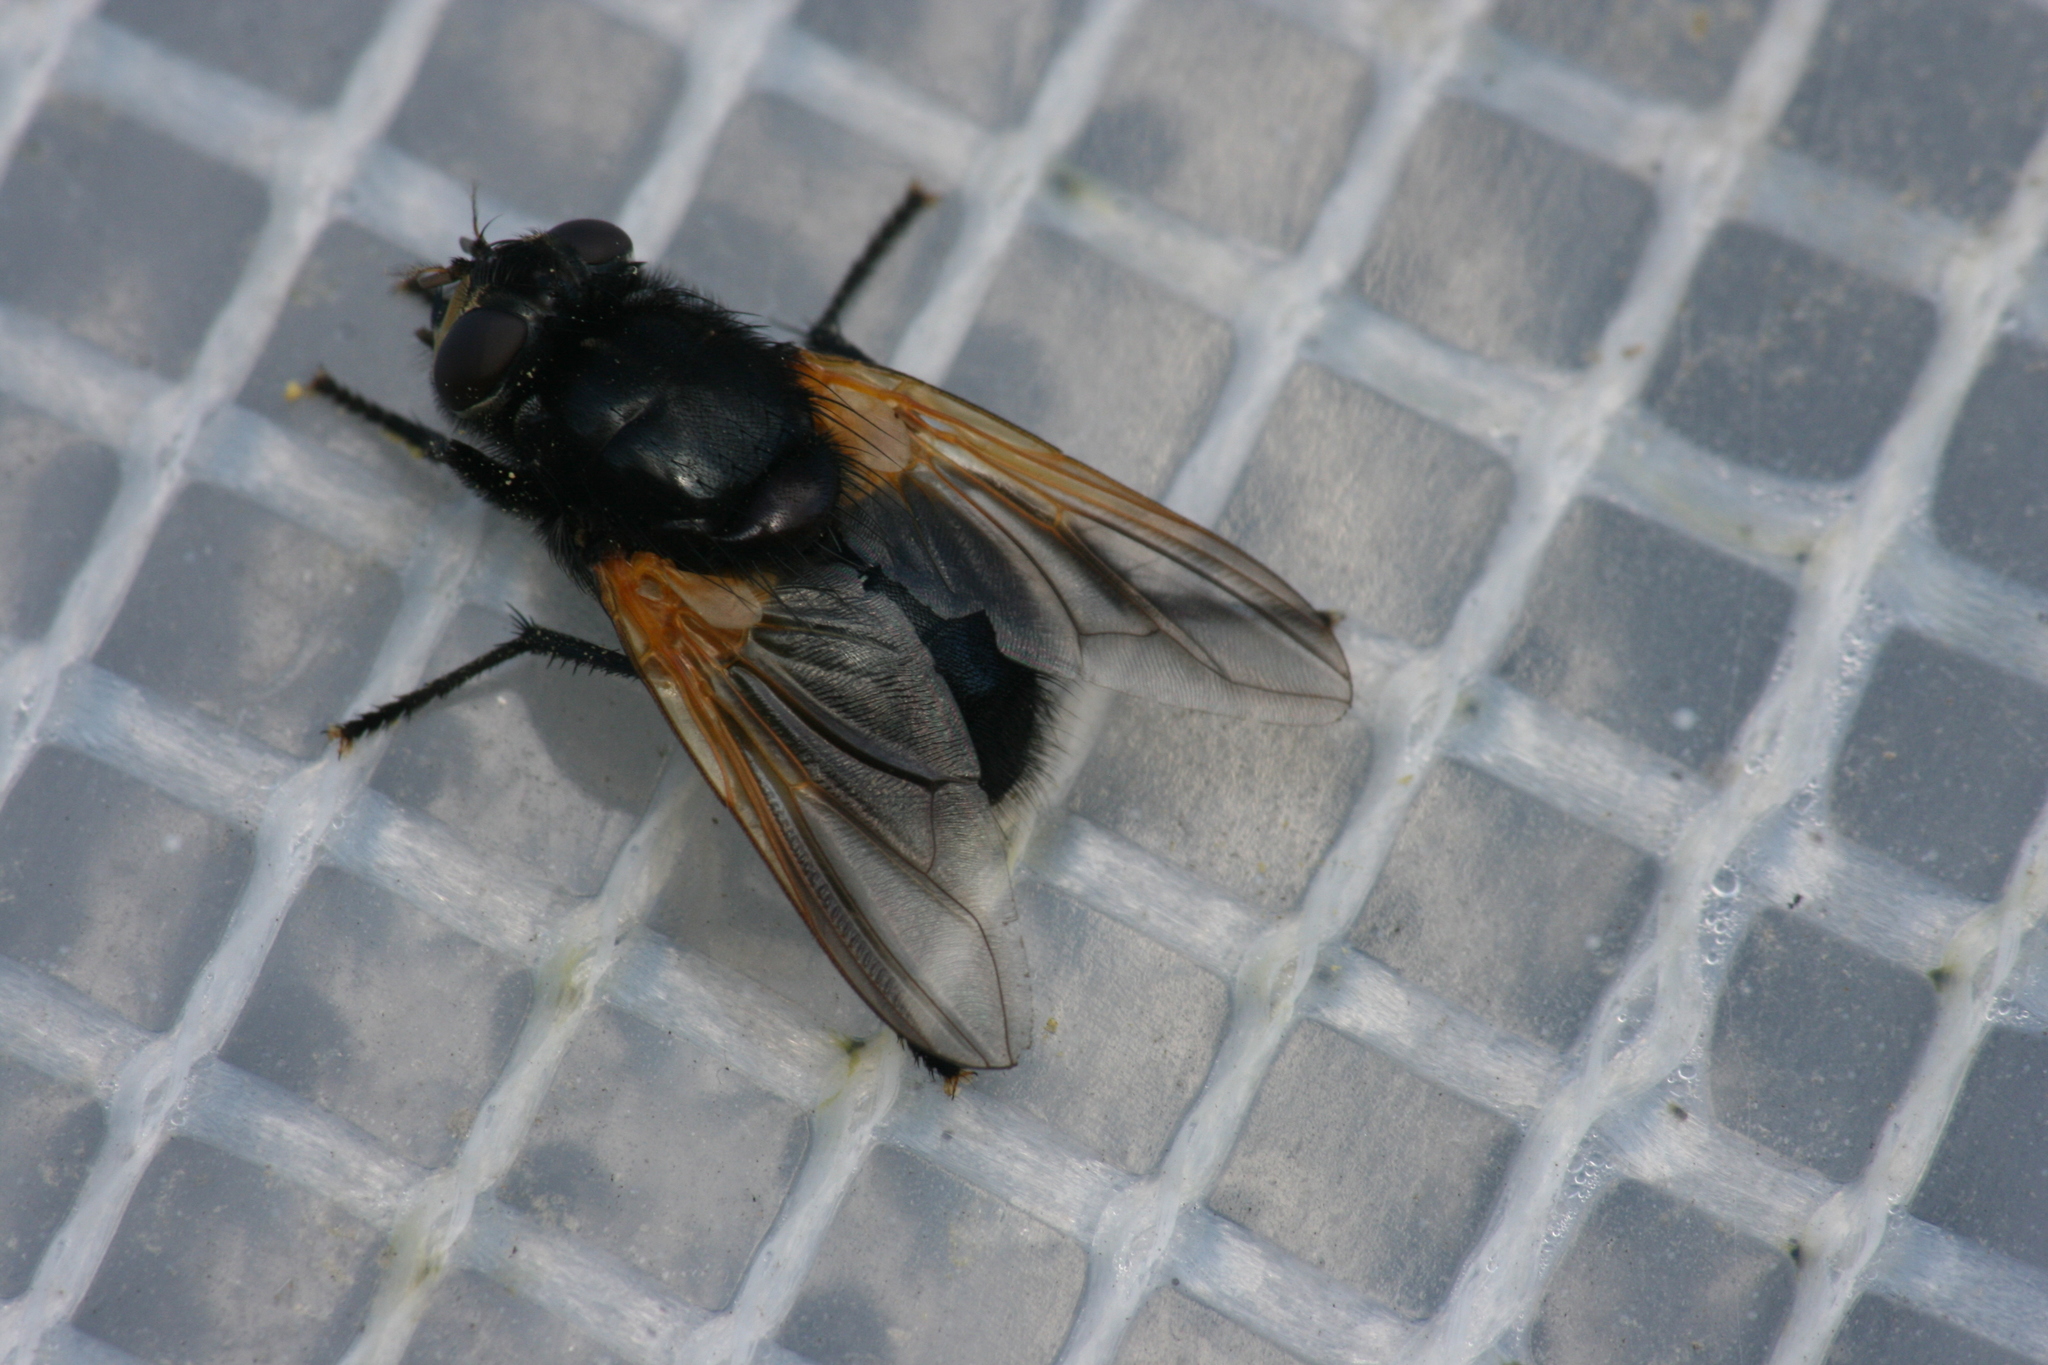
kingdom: Animalia
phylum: Arthropoda
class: Insecta
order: Diptera
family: Muscidae
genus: Mesembrina
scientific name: Mesembrina meridiana
